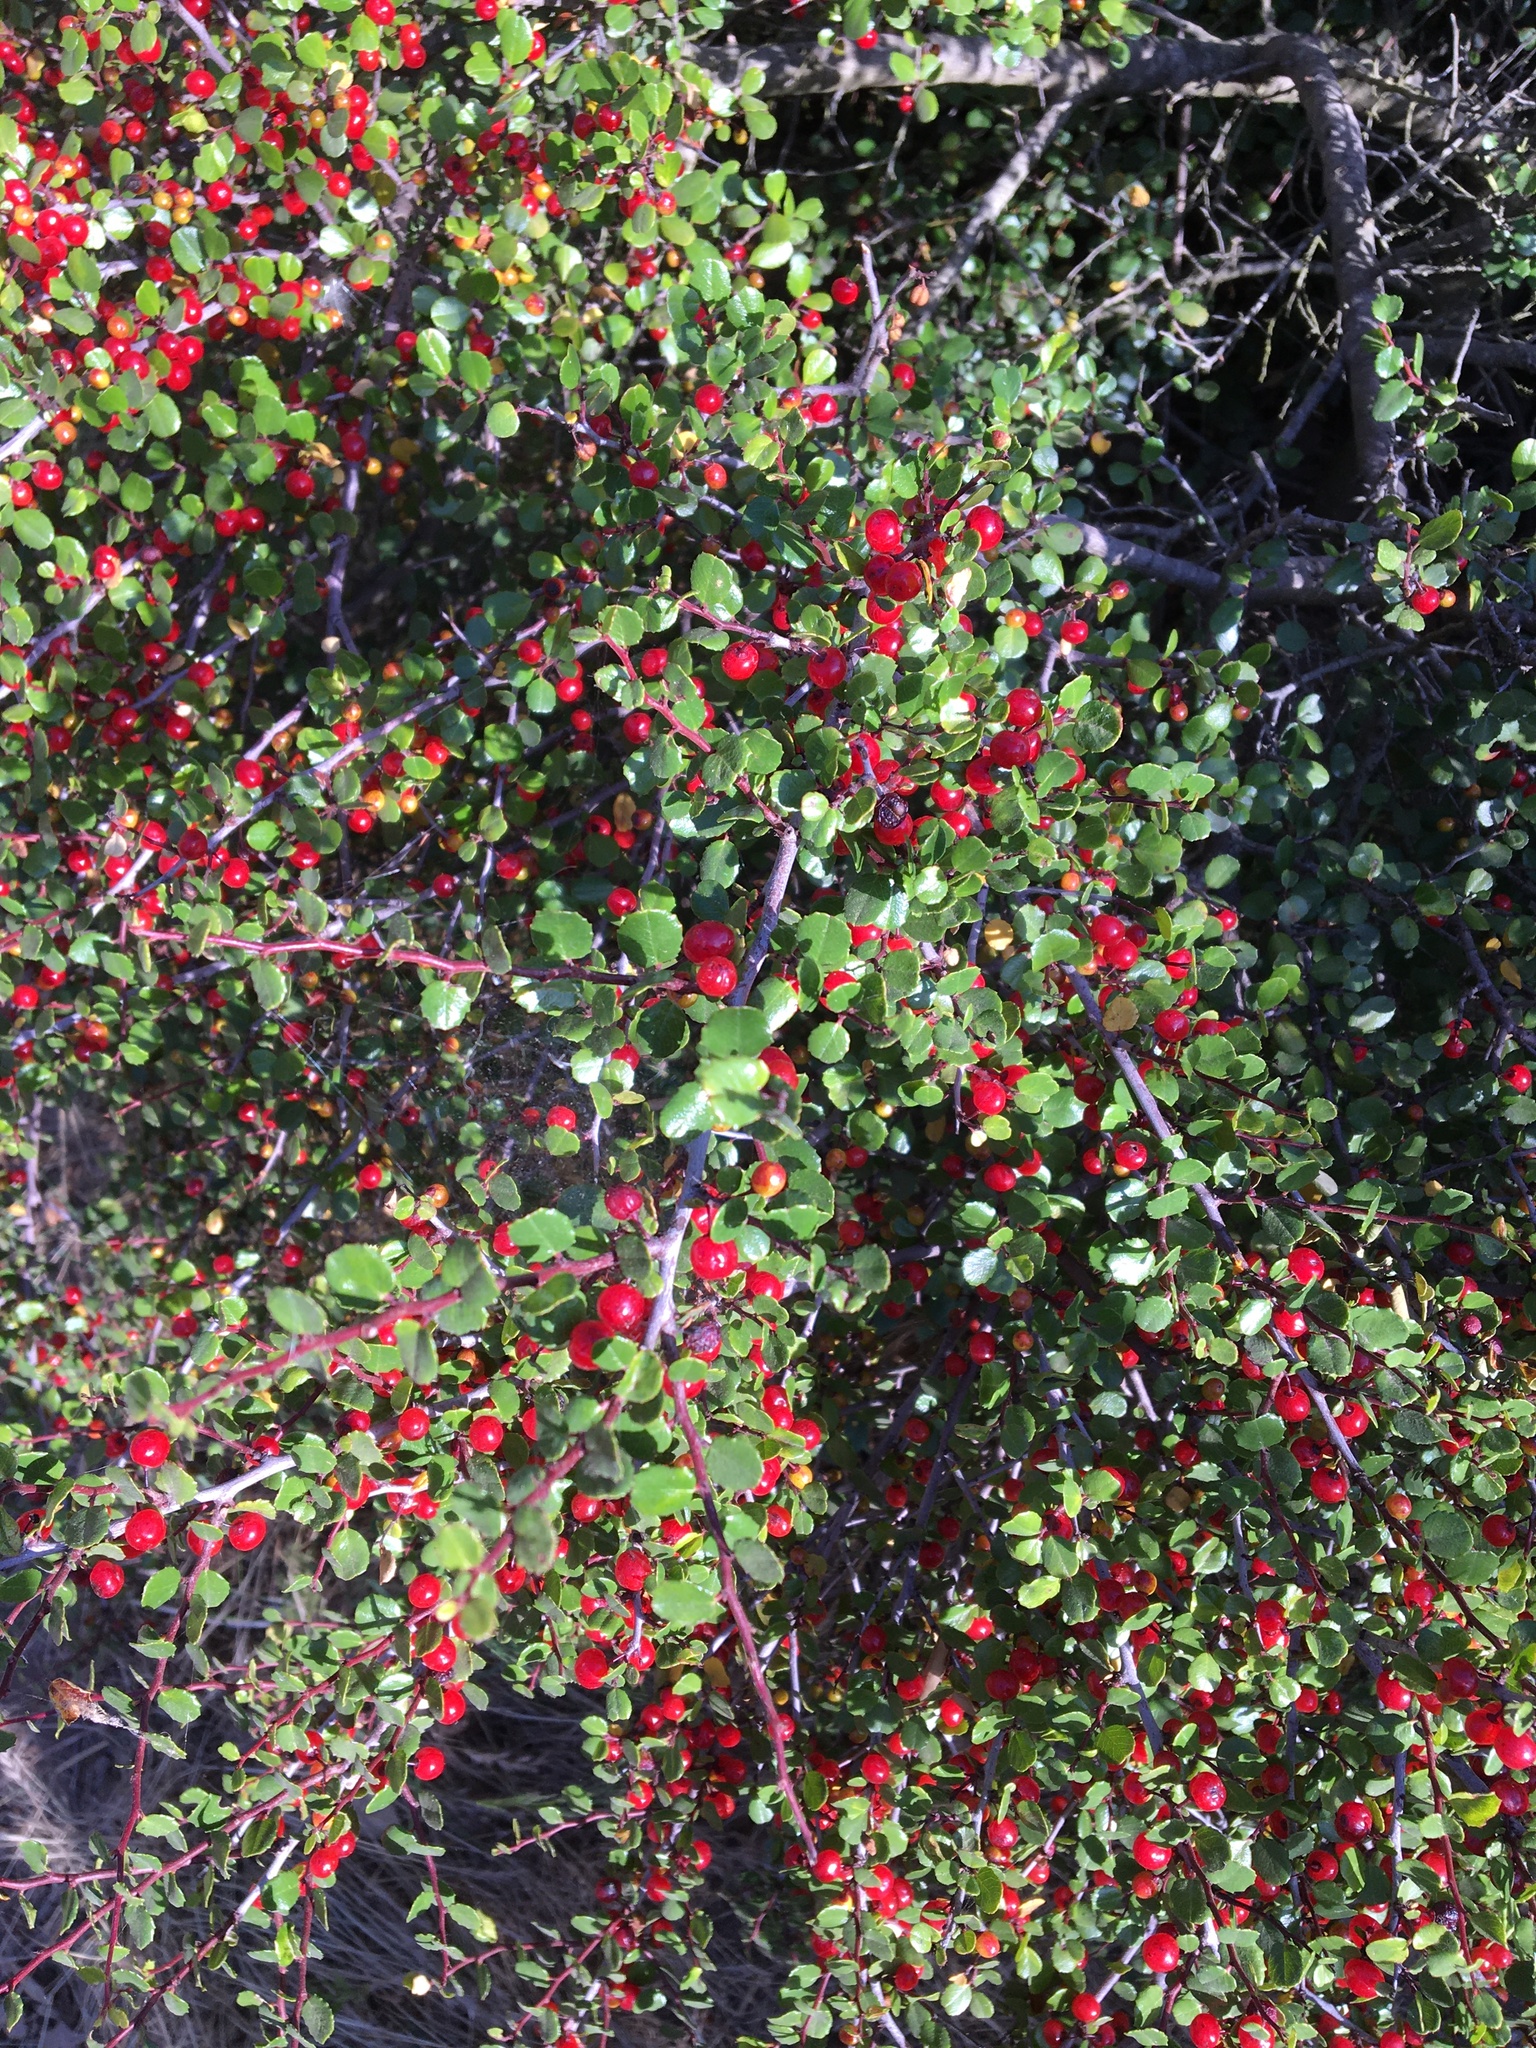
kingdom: Plantae
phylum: Tracheophyta
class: Magnoliopsida
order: Rosales
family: Rhamnaceae
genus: Endotropis
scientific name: Endotropis crocea
